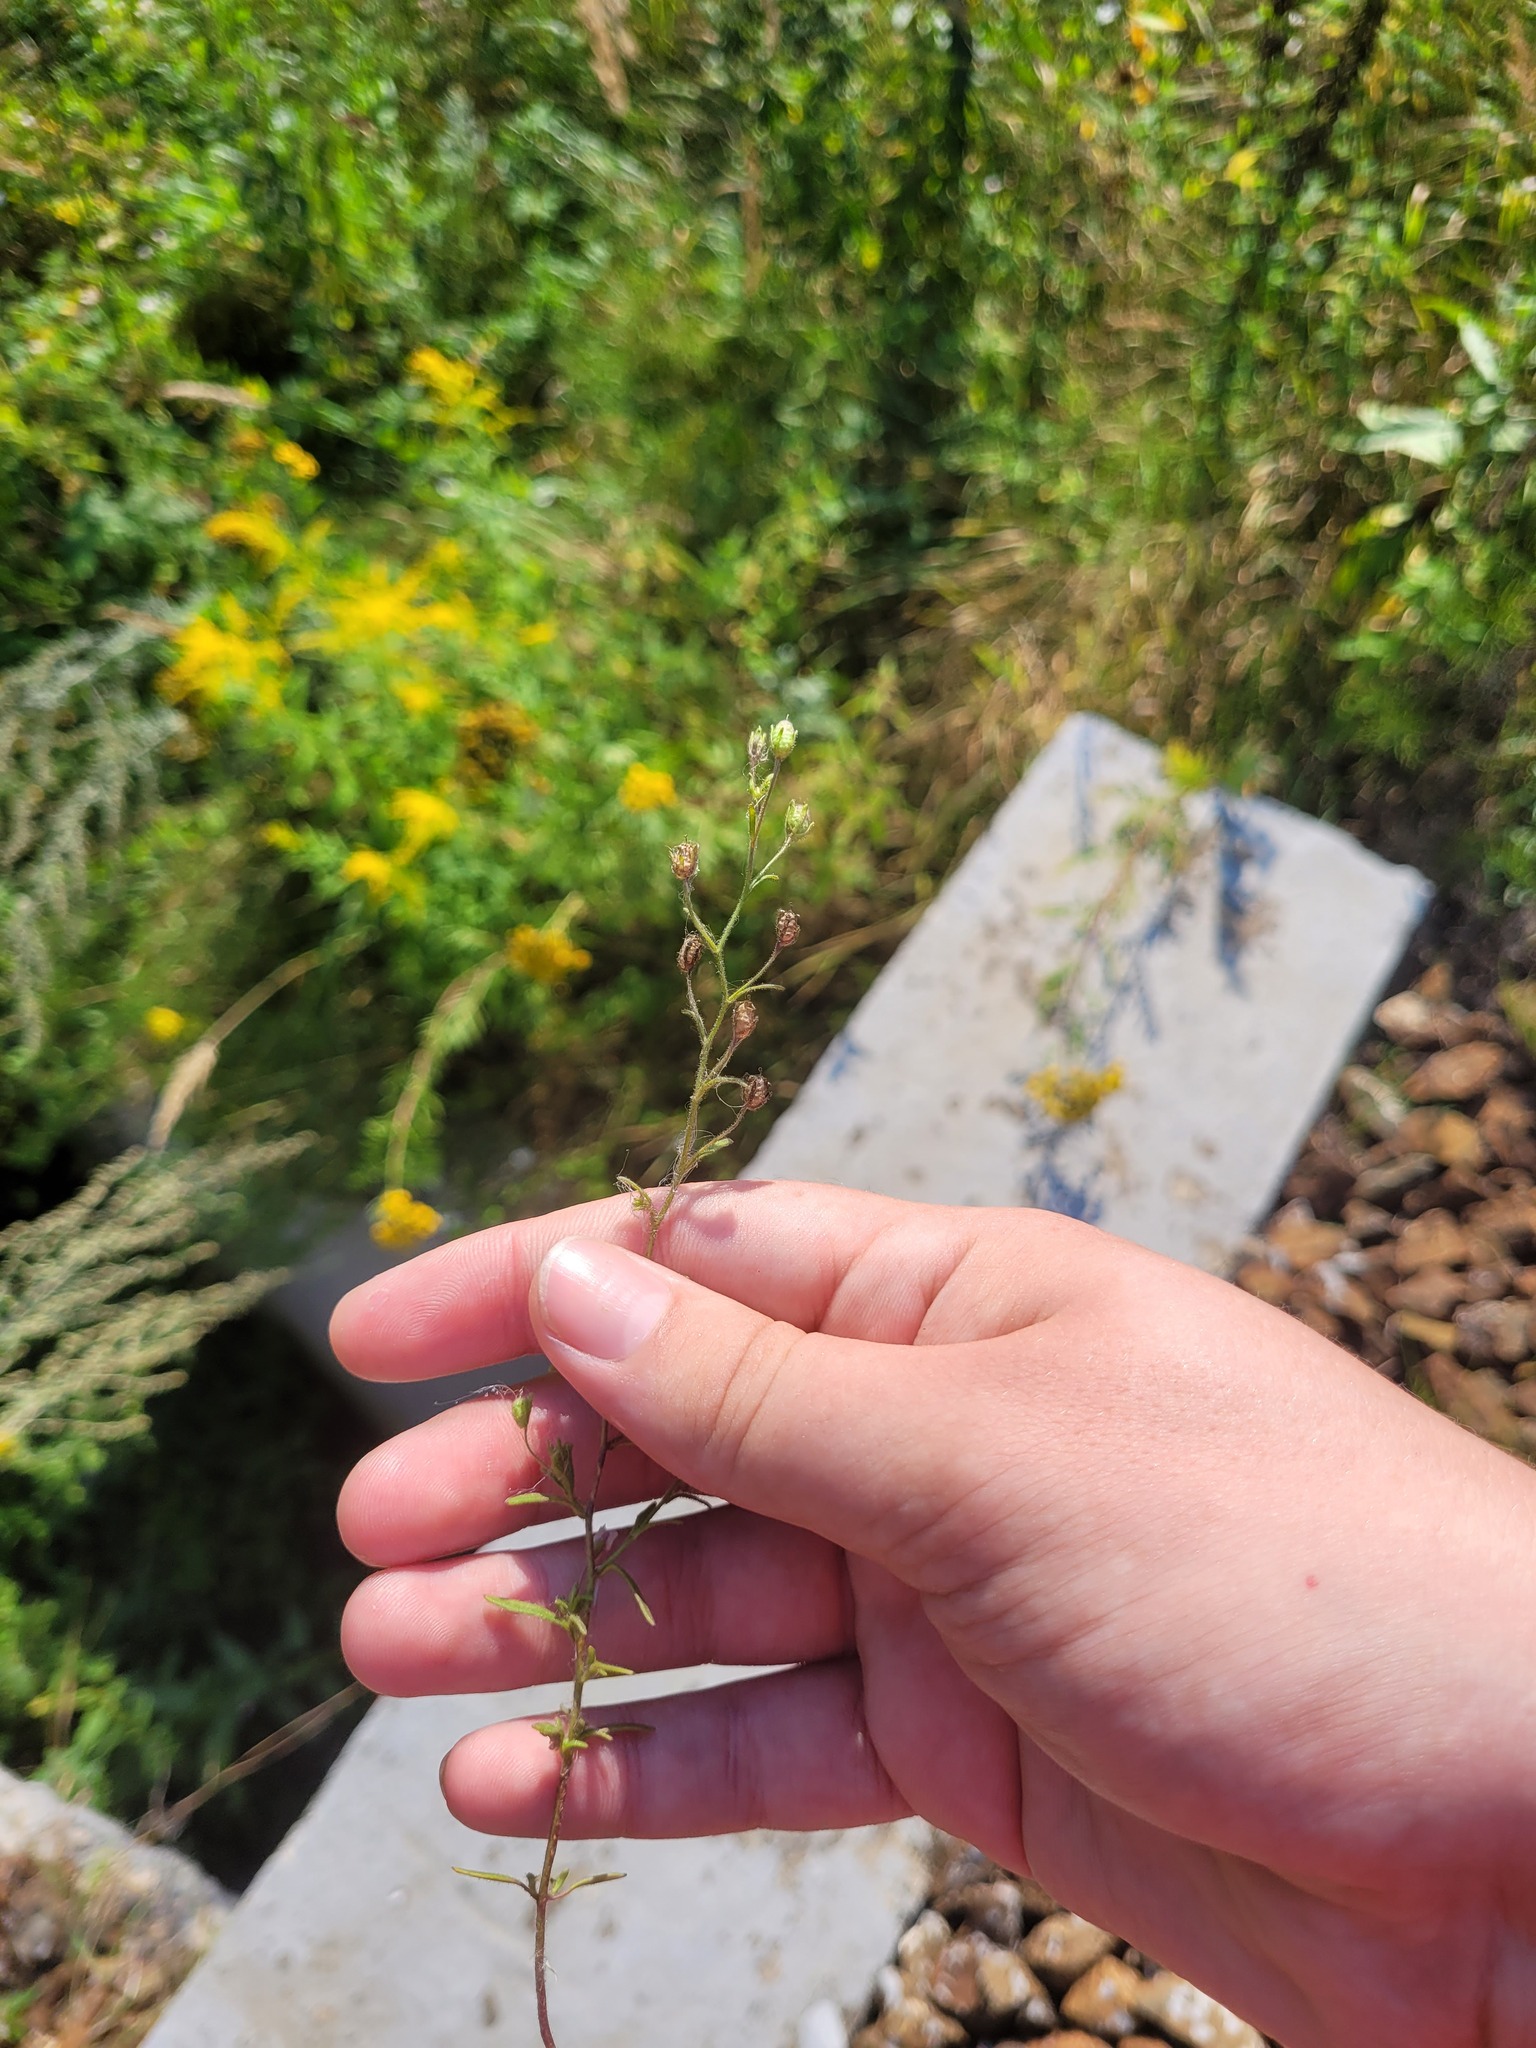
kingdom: Plantae
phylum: Tracheophyta
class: Magnoliopsida
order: Lamiales
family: Plantaginaceae
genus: Chaenorhinum
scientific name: Chaenorhinum minus
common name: Dwarf snapdragon
